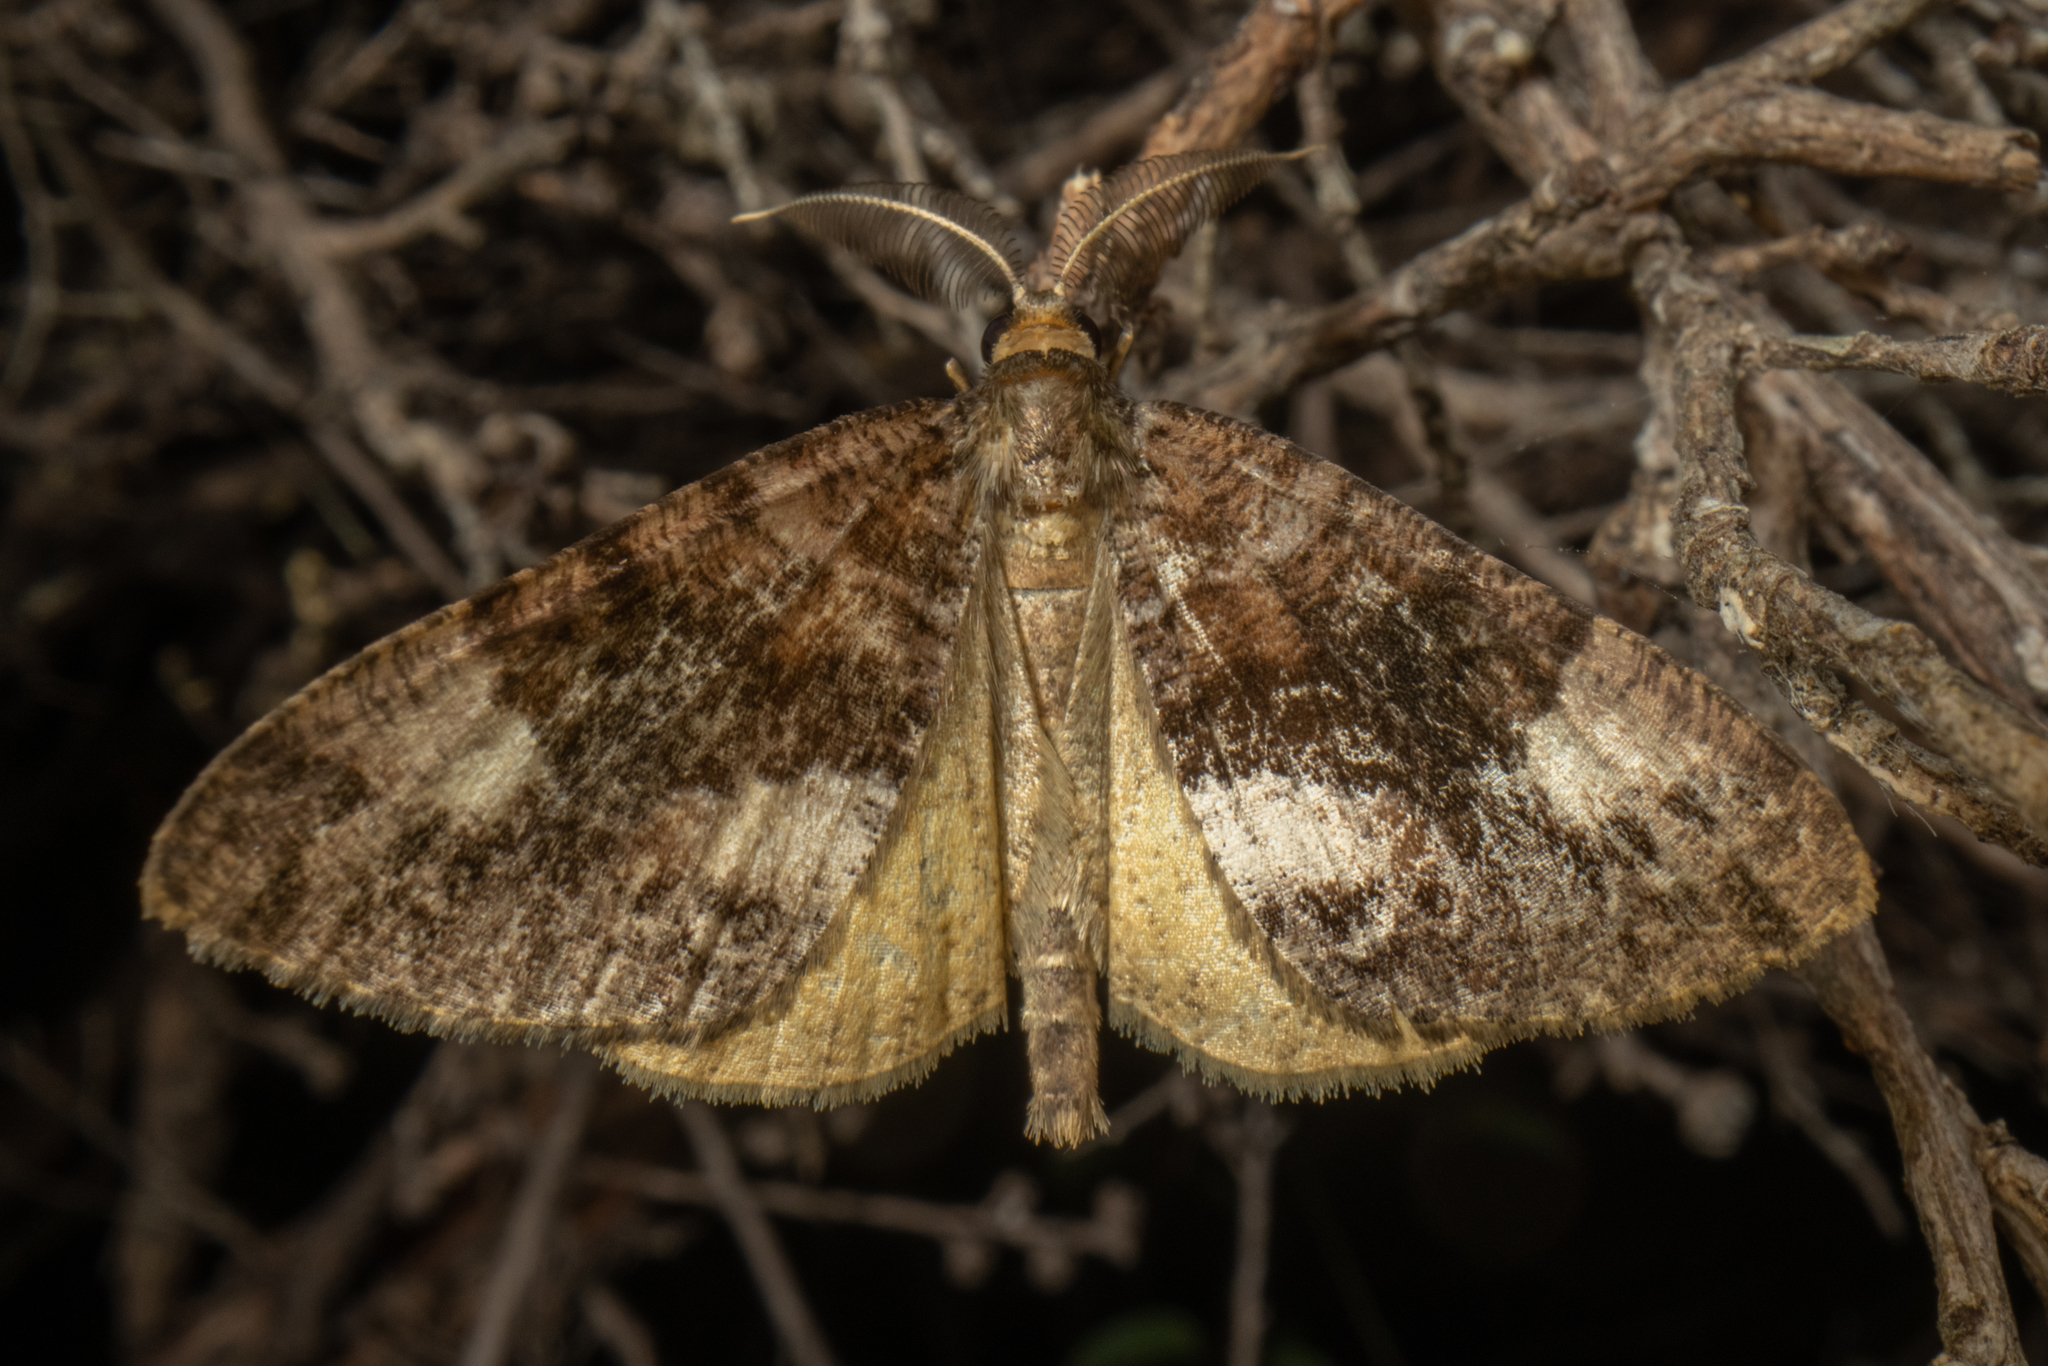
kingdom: Animalia
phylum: Arthropoda
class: Insecta
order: Lepidoptera
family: Geometridae
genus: Pseudocoremia
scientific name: Pseudocoremia productata
